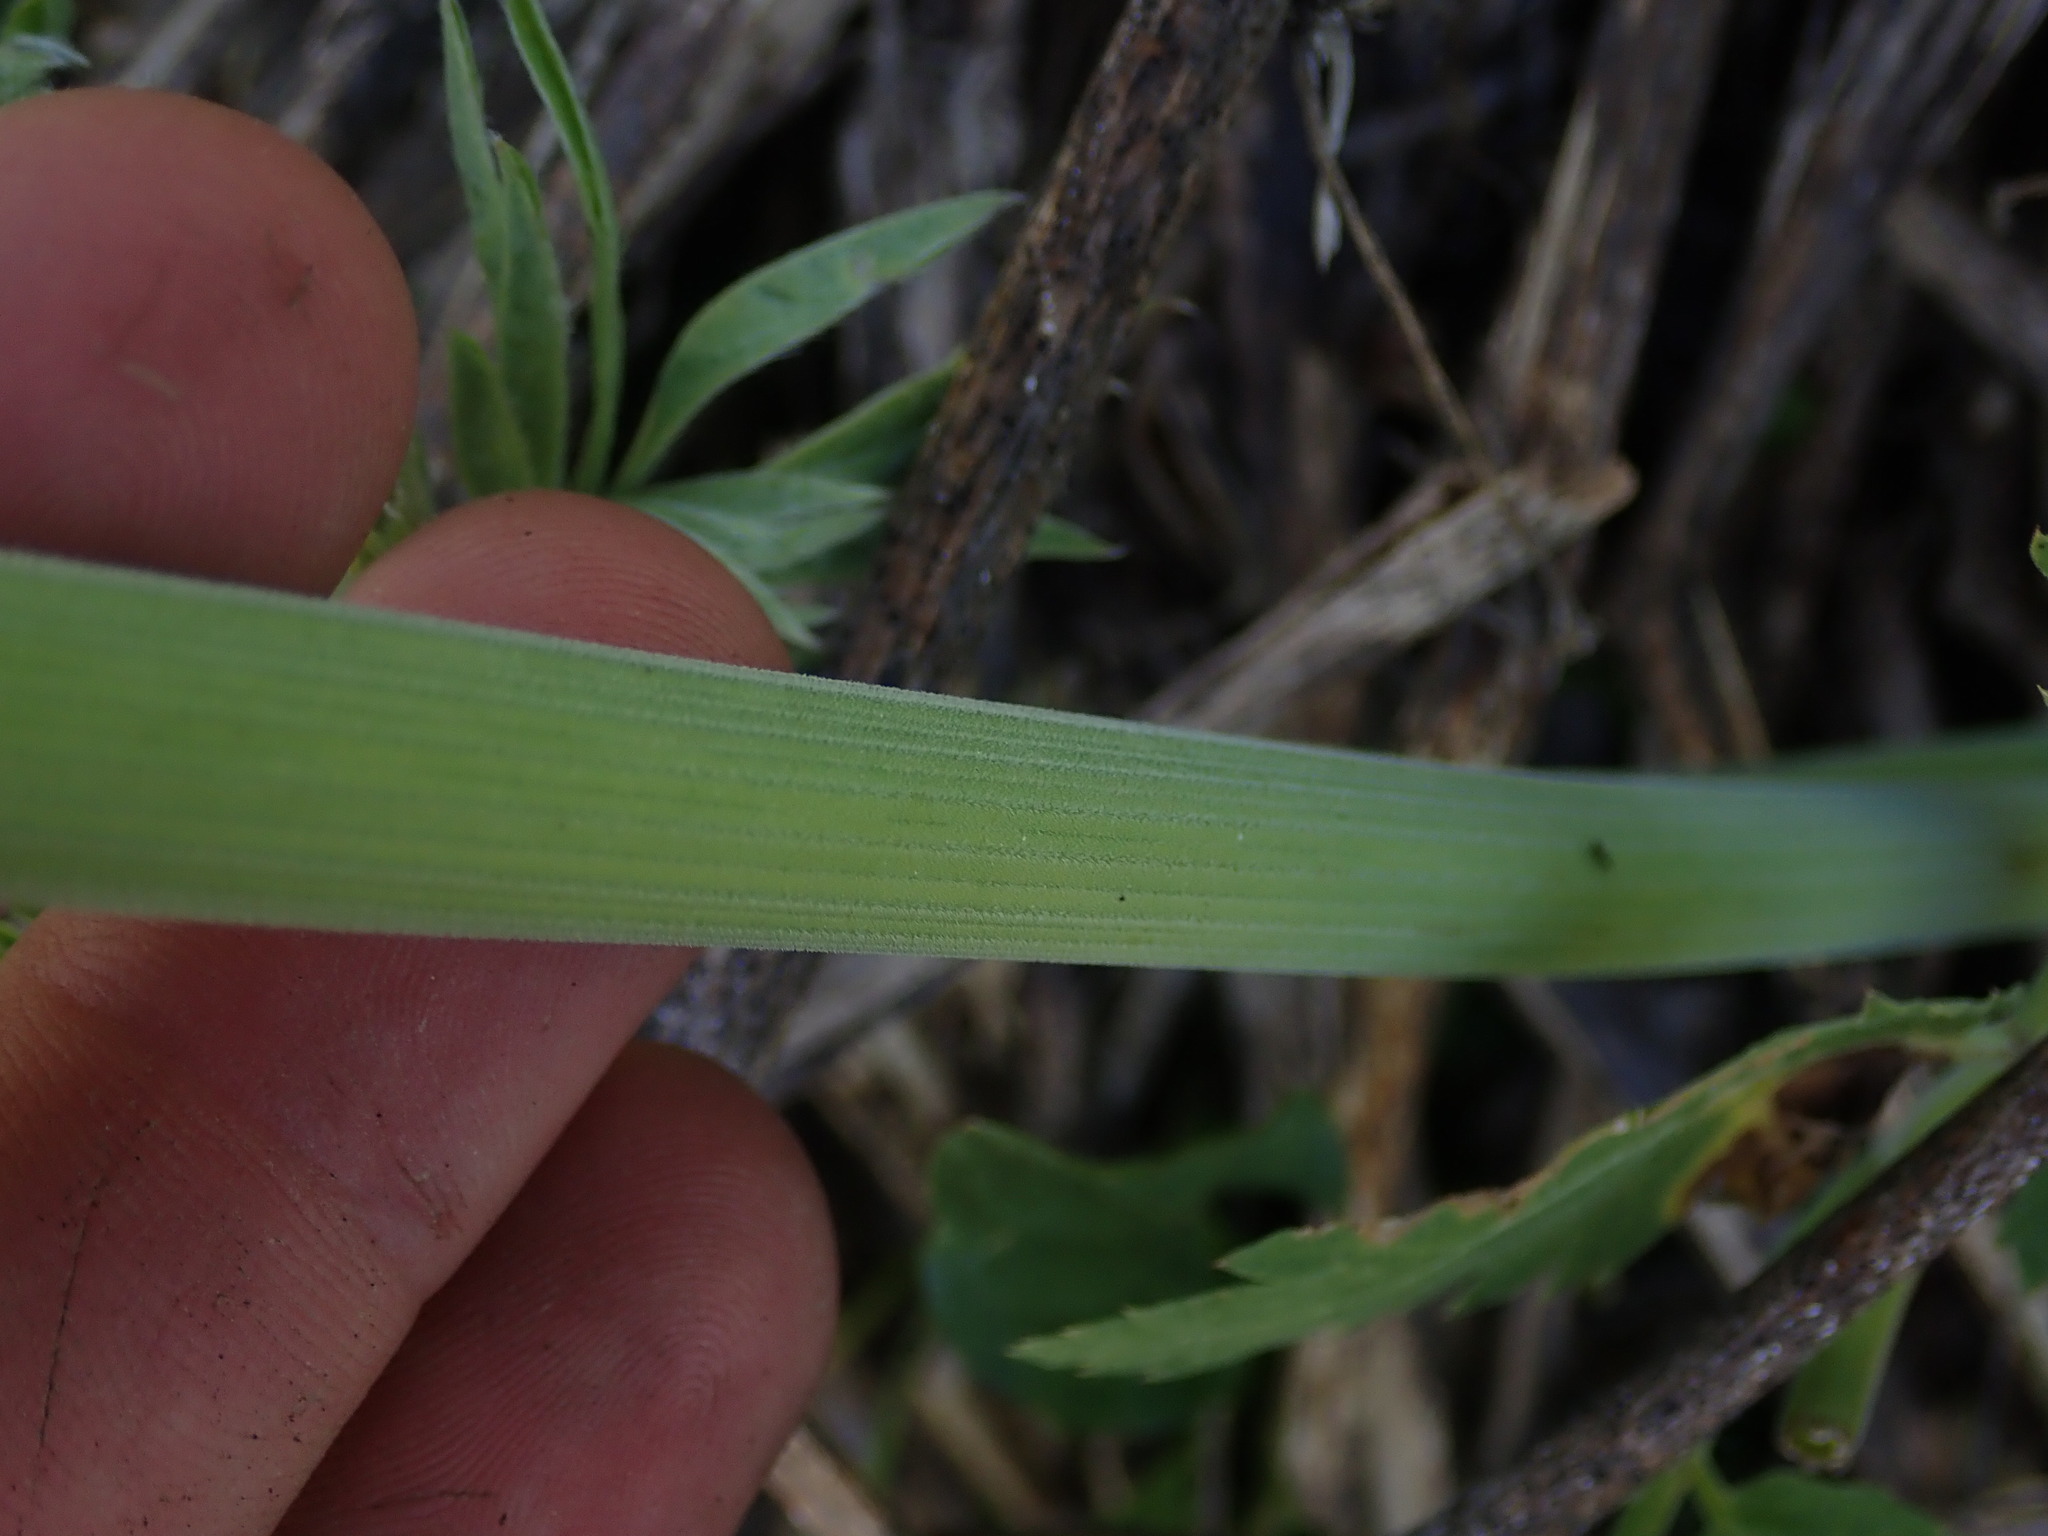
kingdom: Plantae
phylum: Tracheophyta
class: Magnoliopsida
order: Apiales
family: Apiaceae
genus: Osmorhiza
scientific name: Osmorhiza occidentalis
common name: Western sweet cicely
